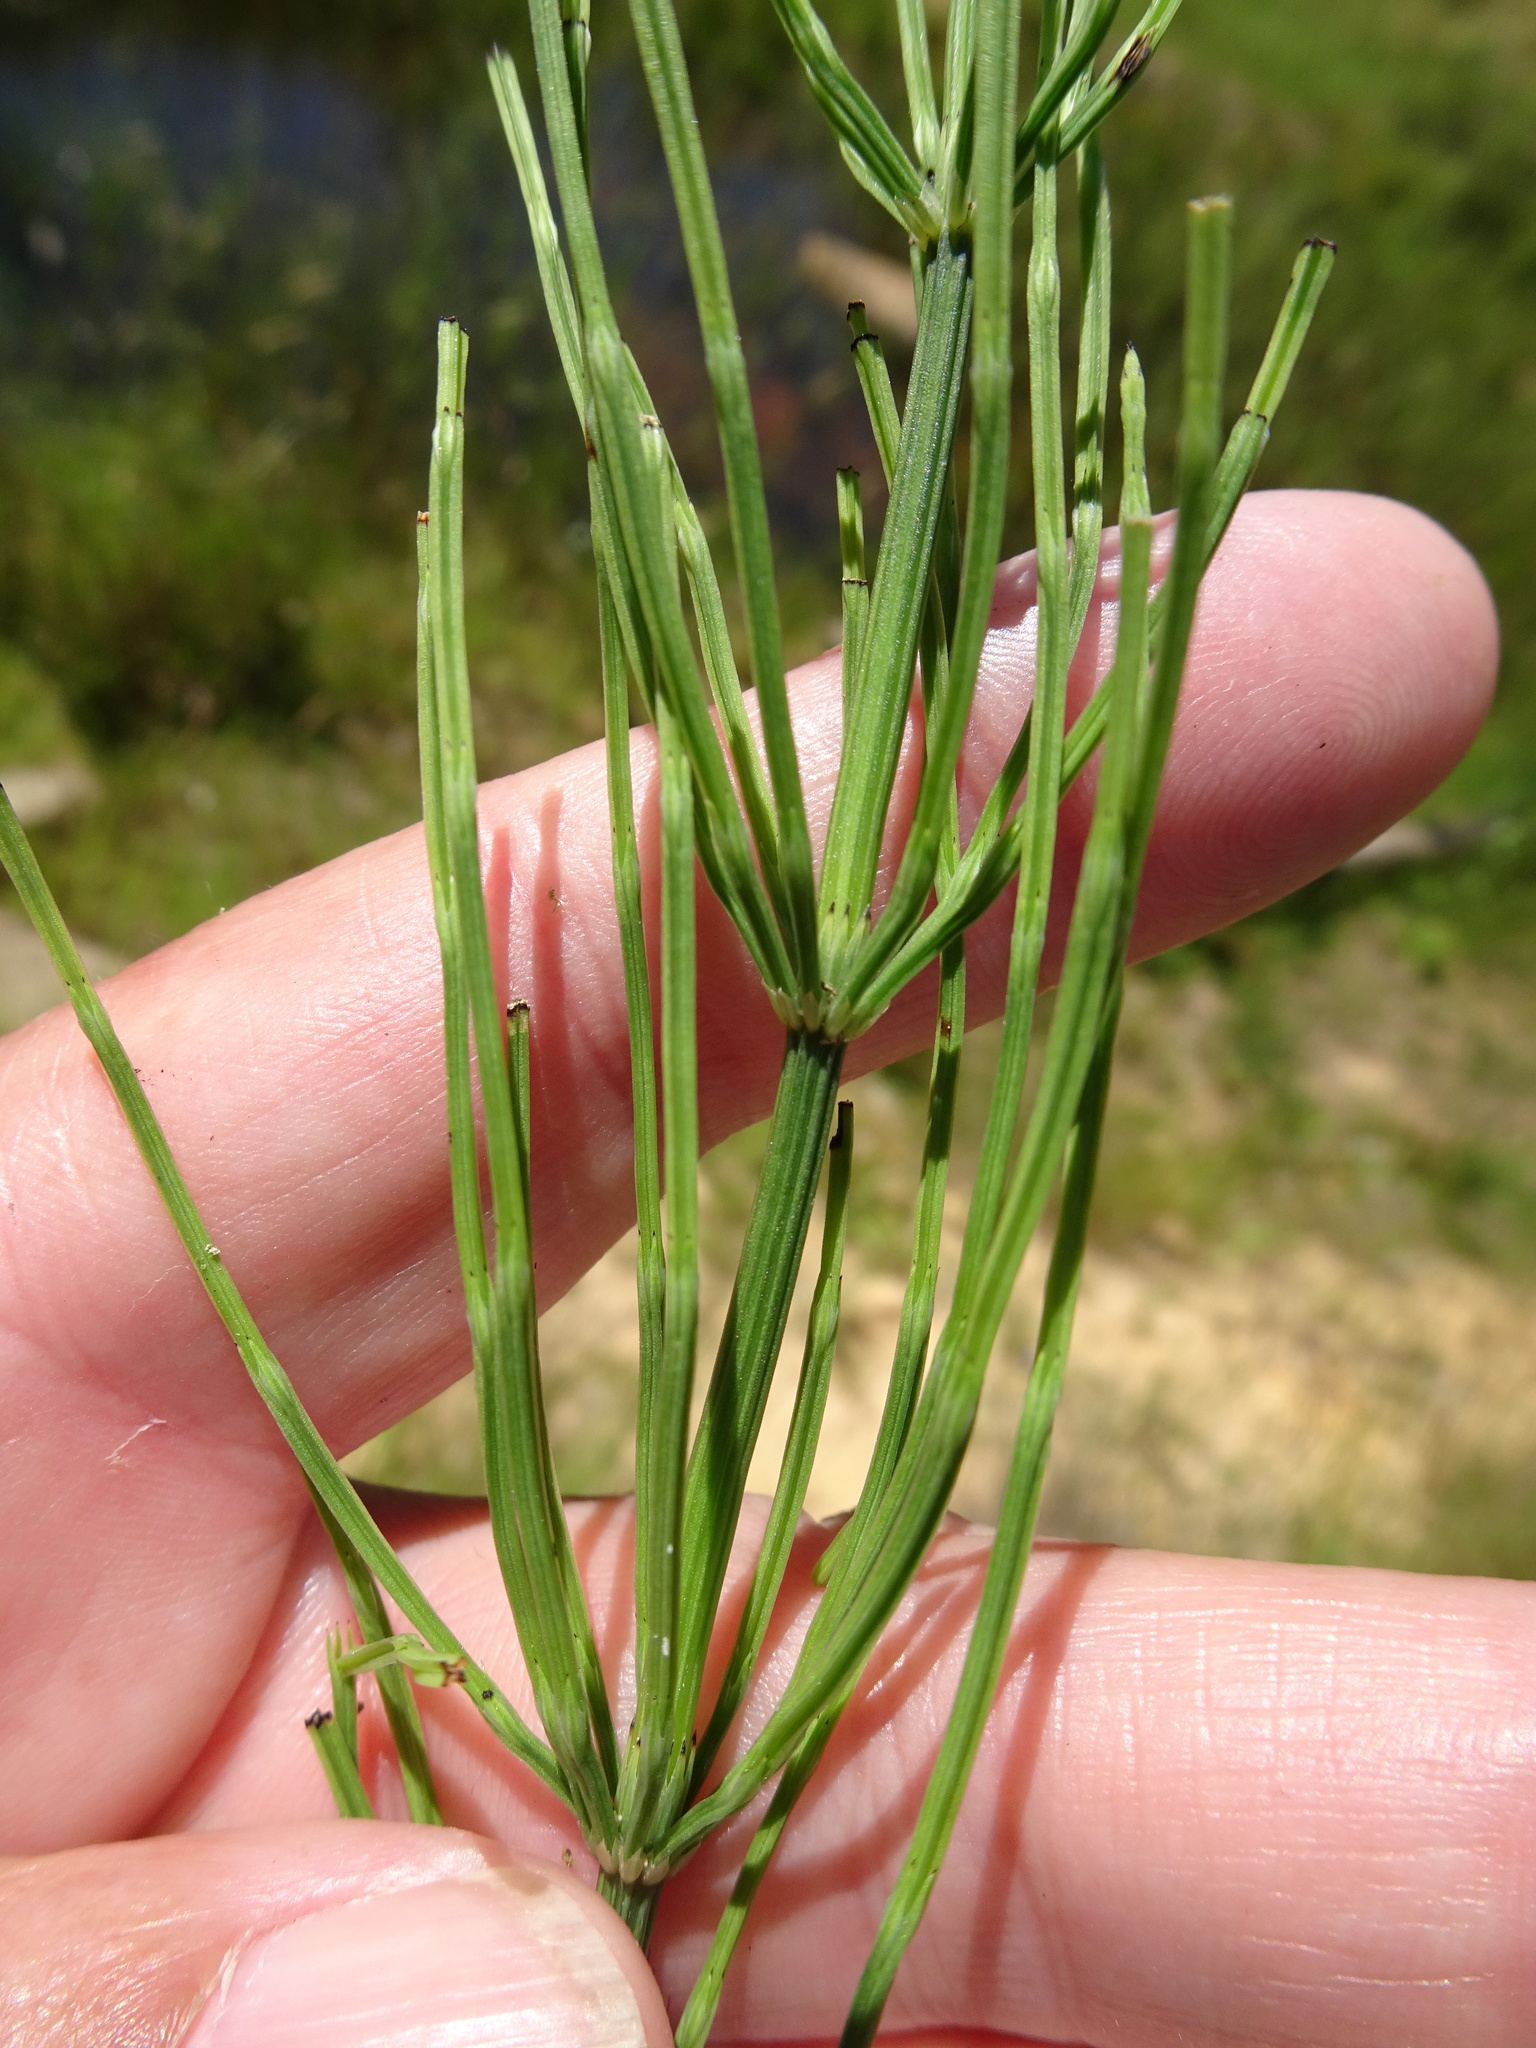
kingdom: Plantae
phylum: Tracheophyta
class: Polypodiopsida
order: Equisetales
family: Equisetaceae
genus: Equisetum
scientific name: Equisetum arvense
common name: Field horsetail
